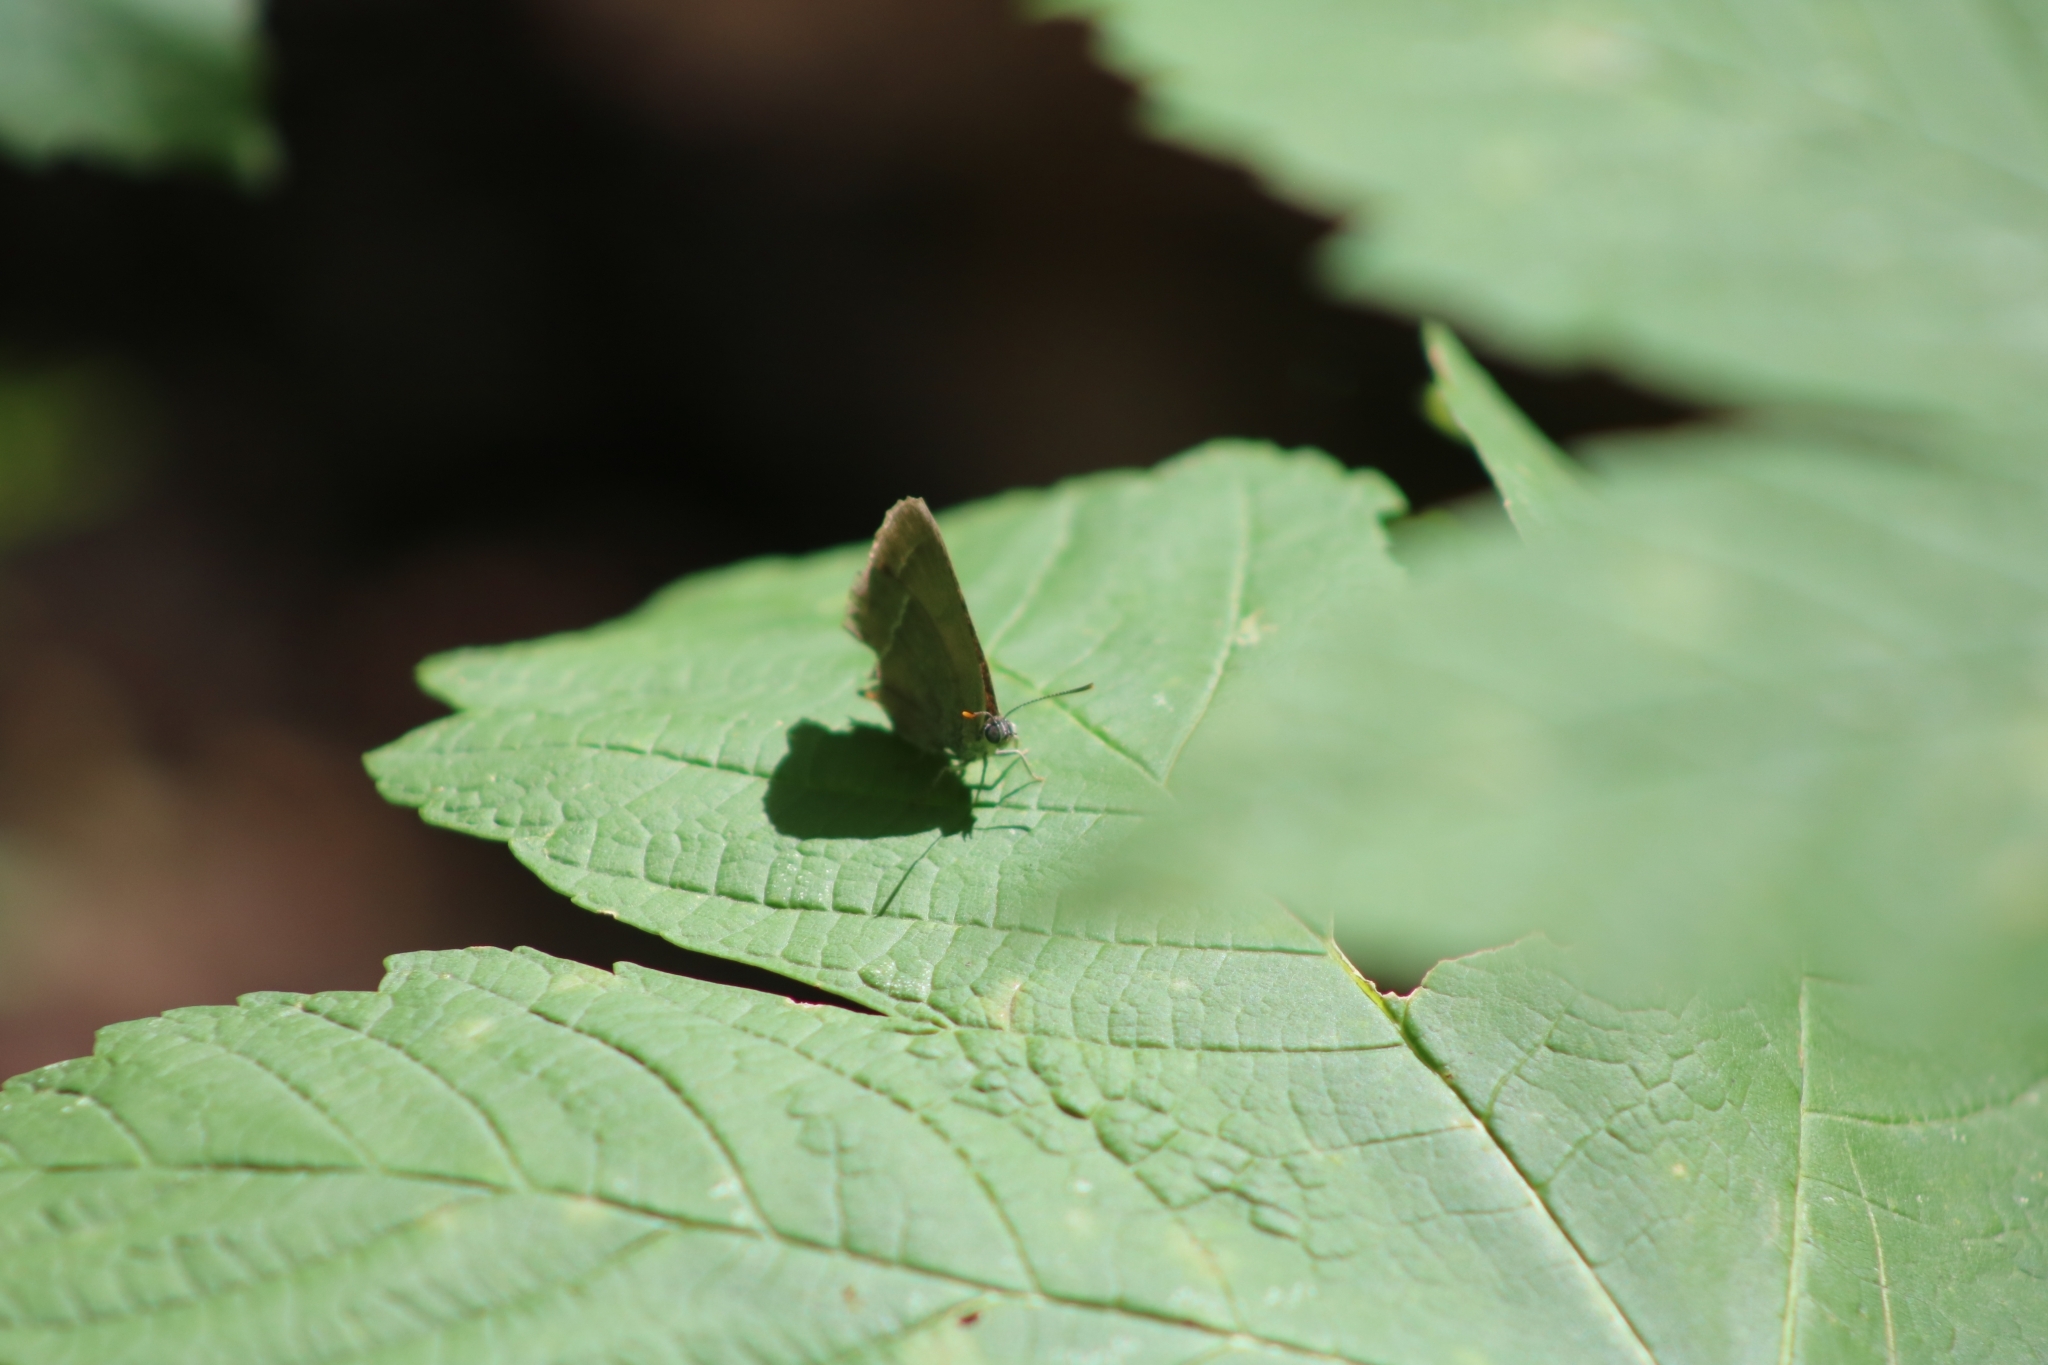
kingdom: Animalia
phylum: Arthropoda
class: Insecta
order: Lepidoptera
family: Lycaenidae
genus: Quercusia
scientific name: Quercusia quercus
